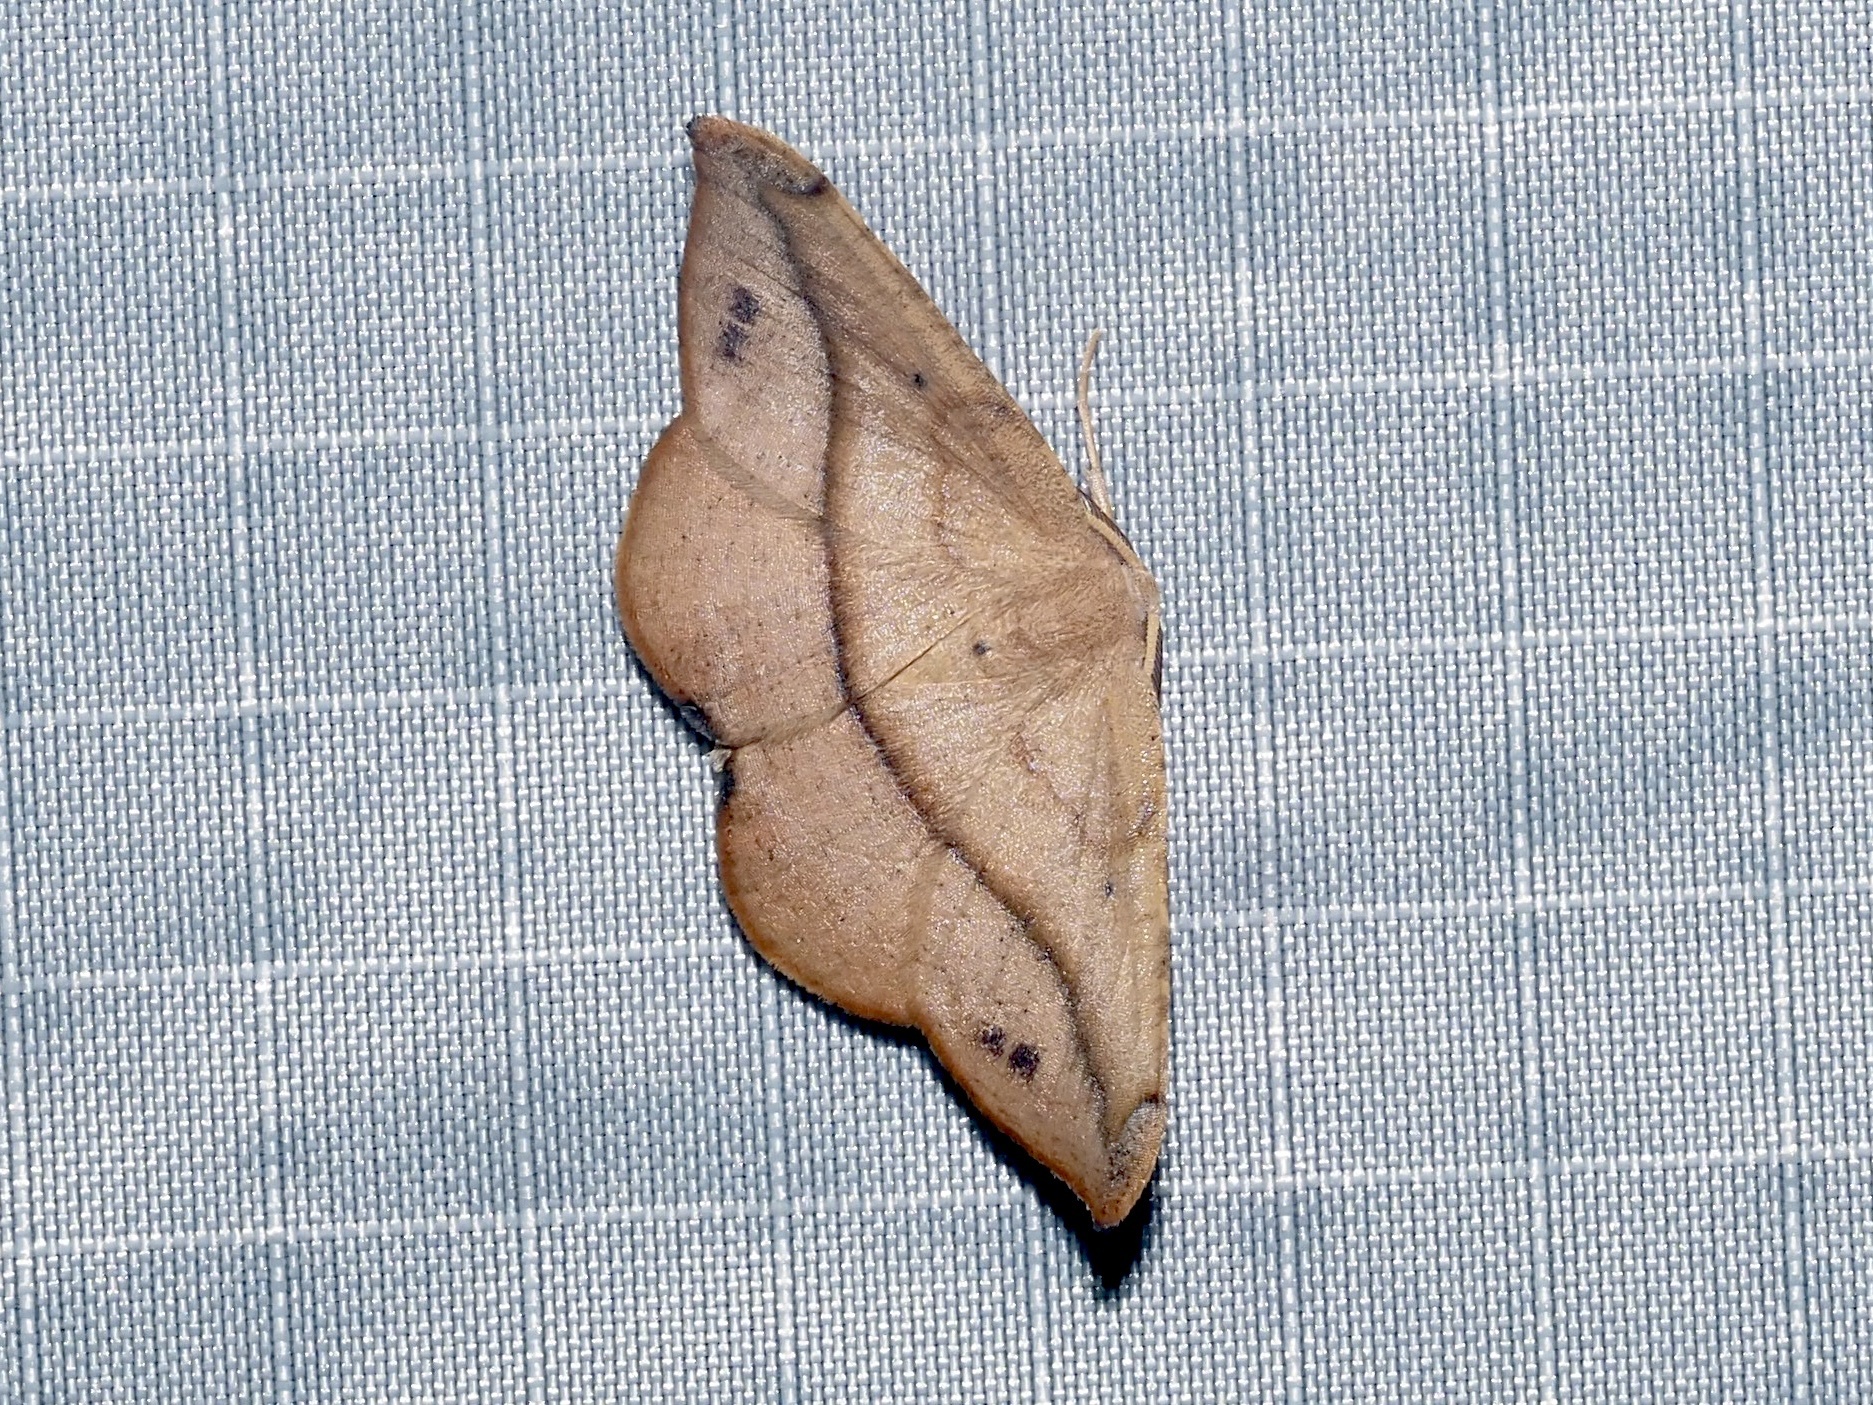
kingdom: Animalia
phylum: Arthropoda
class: Insecta
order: Lepidoptera
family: Geometridae
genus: Patalene
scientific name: Patalene olyzonaria
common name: Juniper geometer moth
